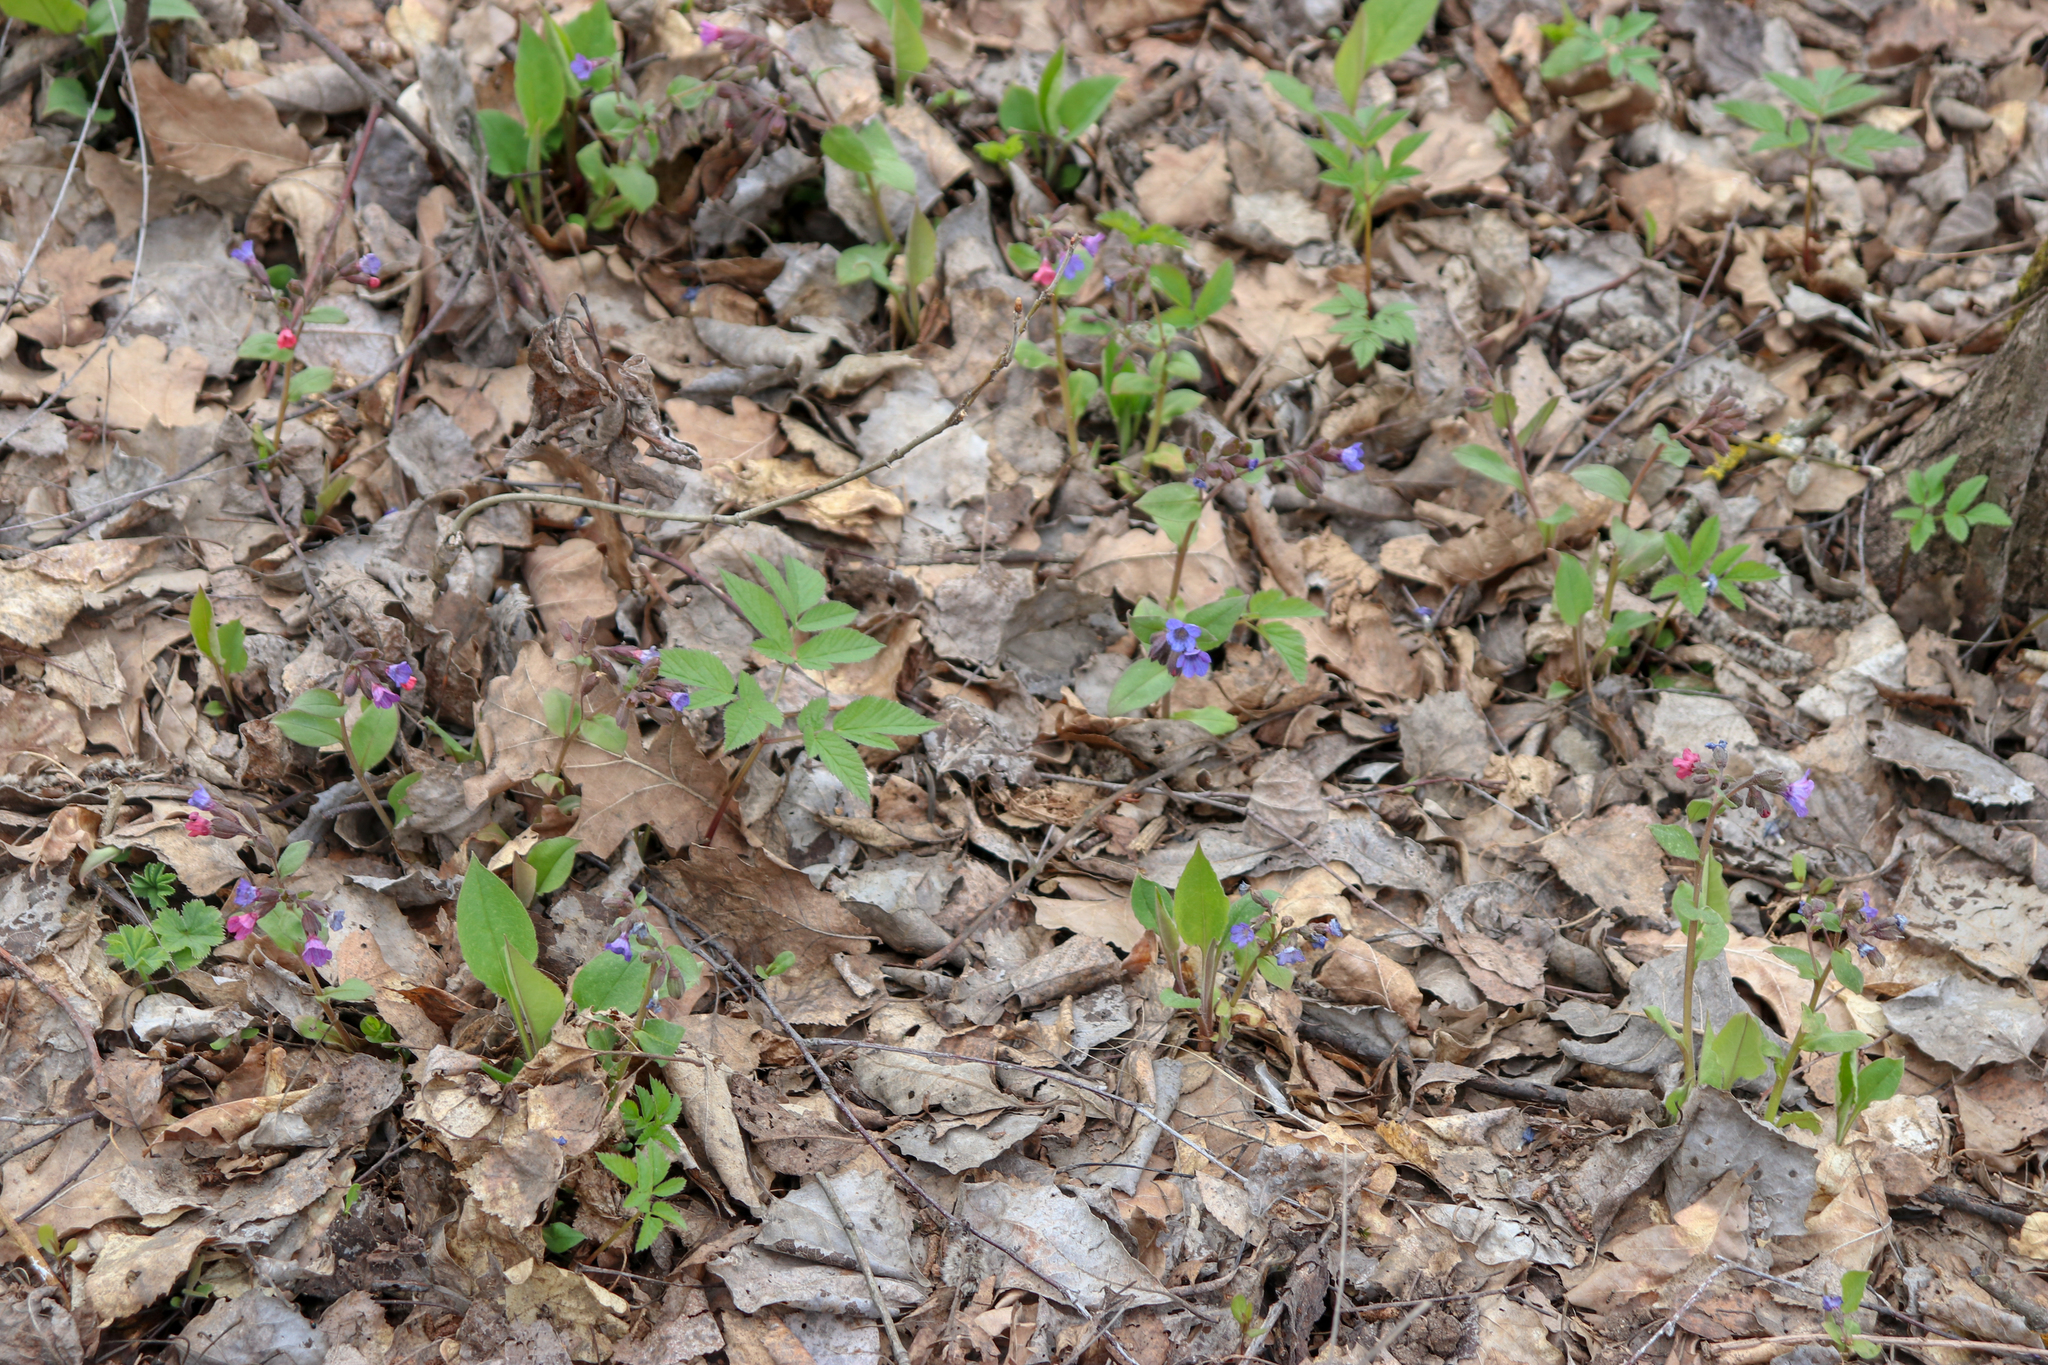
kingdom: Plantae
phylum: Tracheophyta
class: Magnoliopsida
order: Boraginales
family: Boraginaceae
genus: Pulmonaria
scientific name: Pulmonaria obscura
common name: Suffolk lungwort
